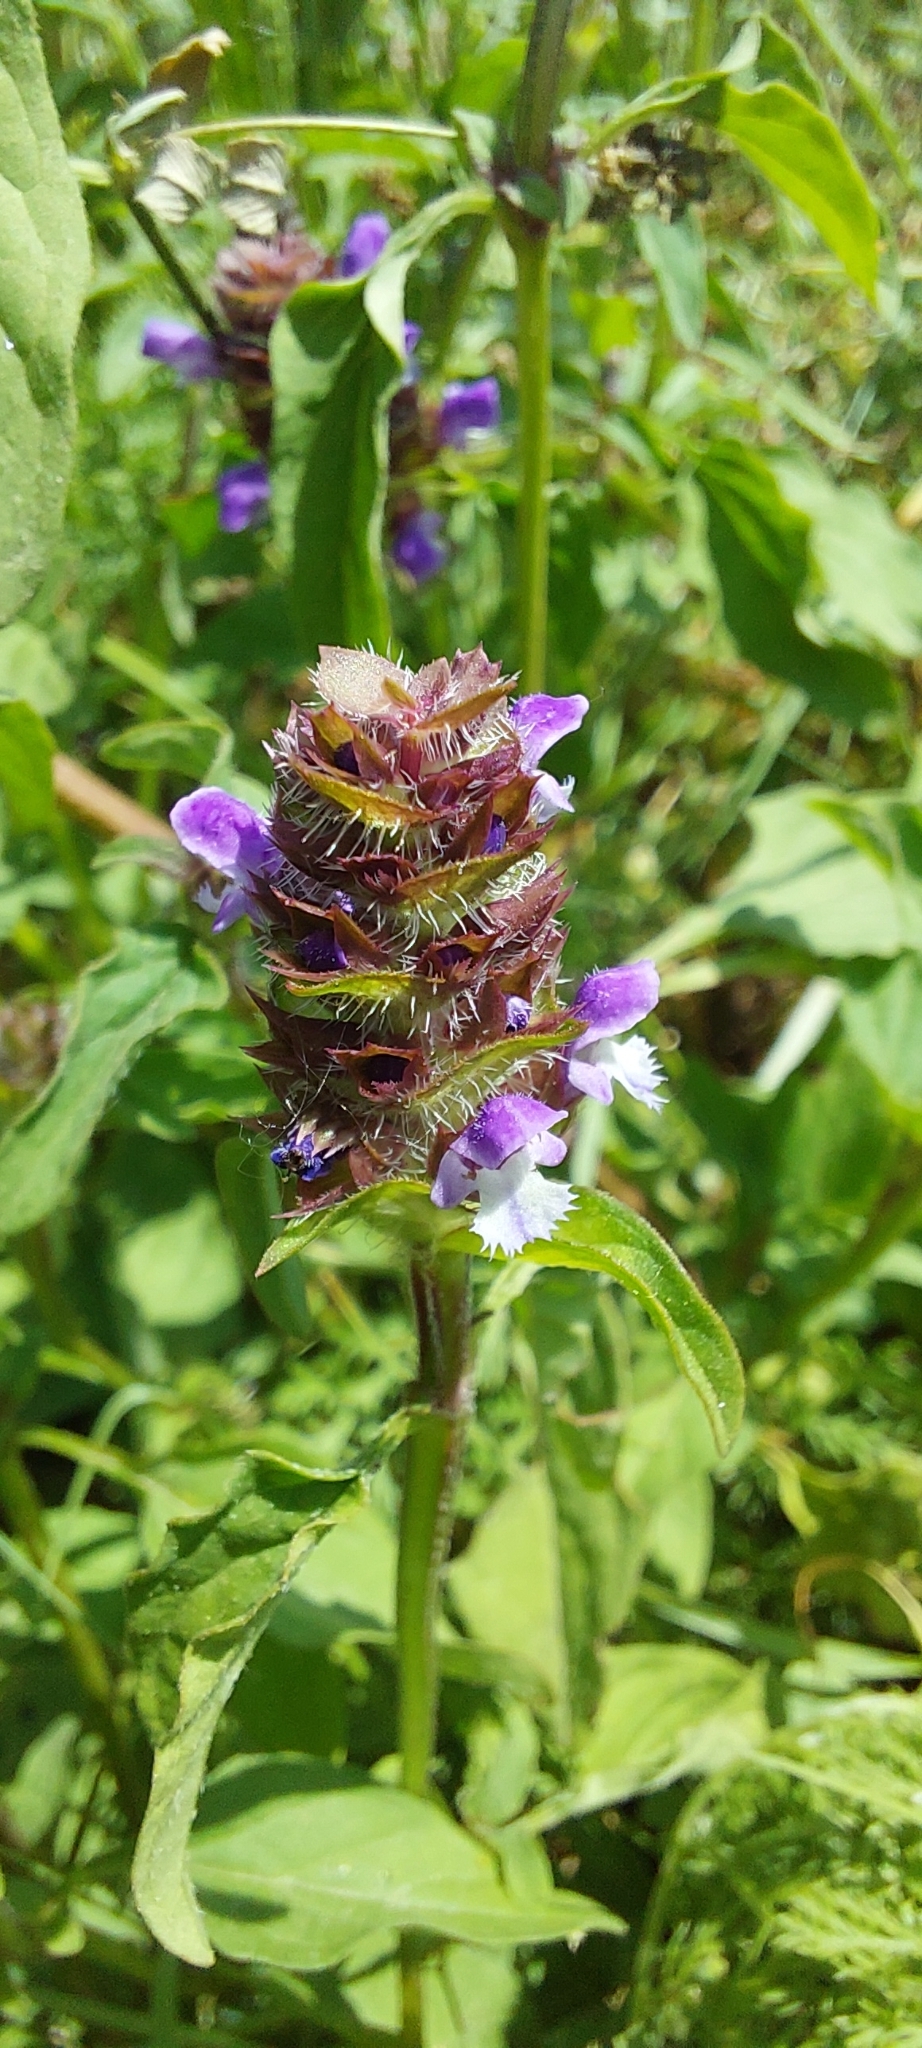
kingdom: Plantae
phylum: Tracheophyta
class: Magnoliopsida
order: Lamiales
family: Lamiaceae
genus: Prunella
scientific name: Prunella vulgaris
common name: Heal-all
